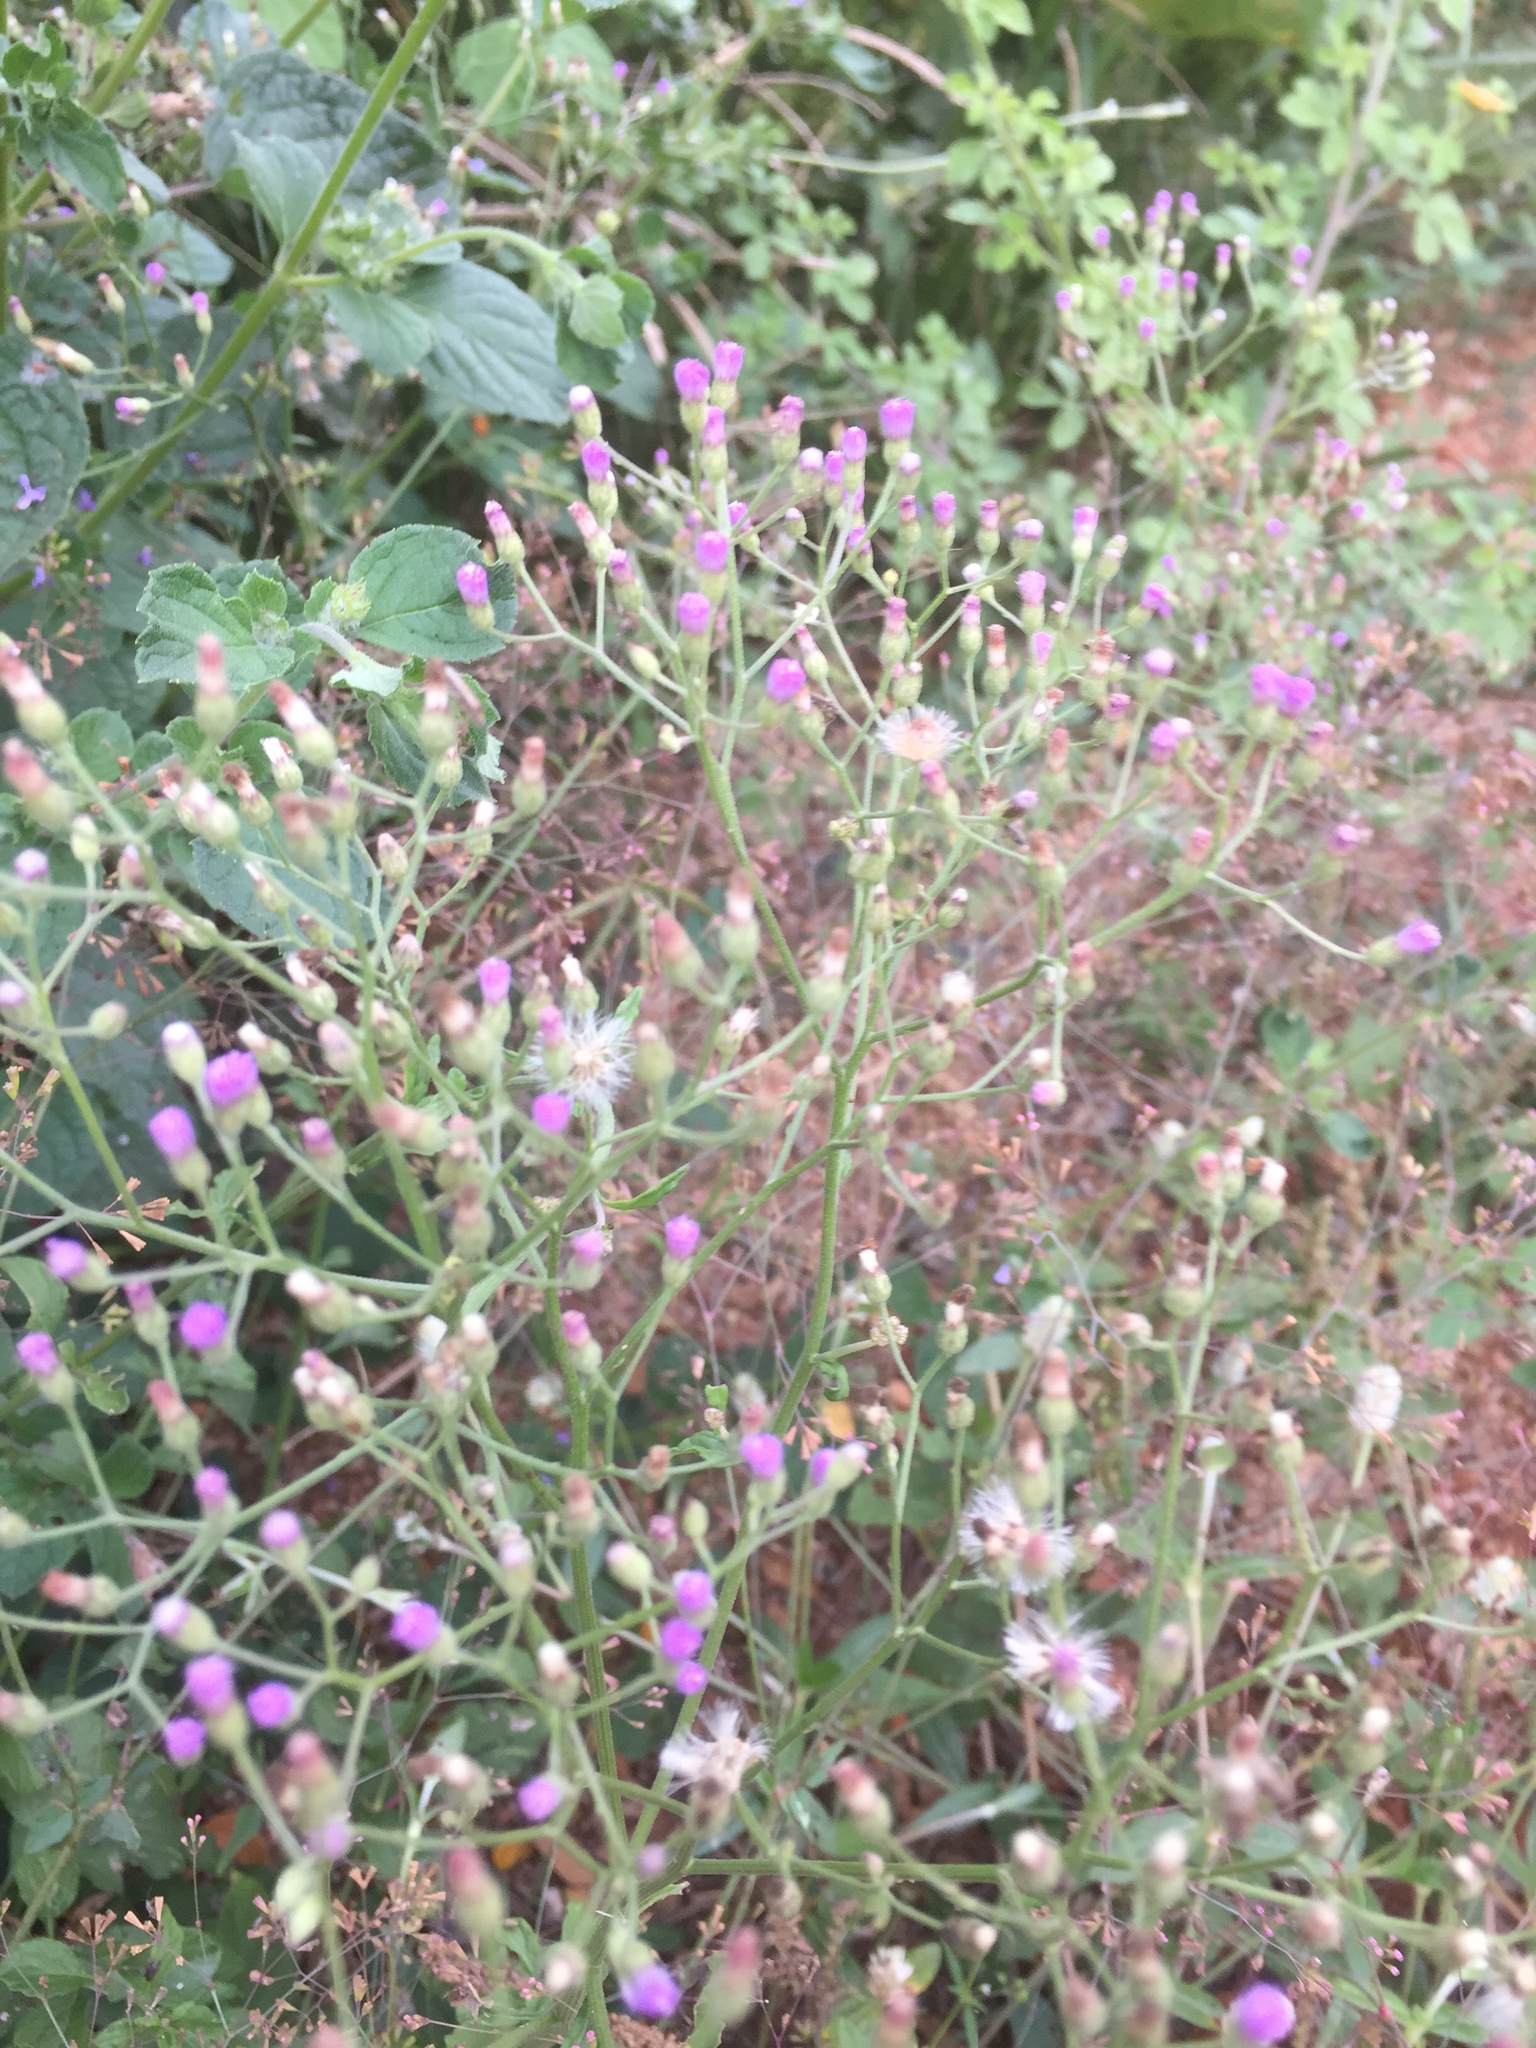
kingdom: Plantae
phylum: Tracheophyta
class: Magnoliopsida
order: Asterales
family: Asteraceae
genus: Emilia
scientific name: Emilia sonchifolia
